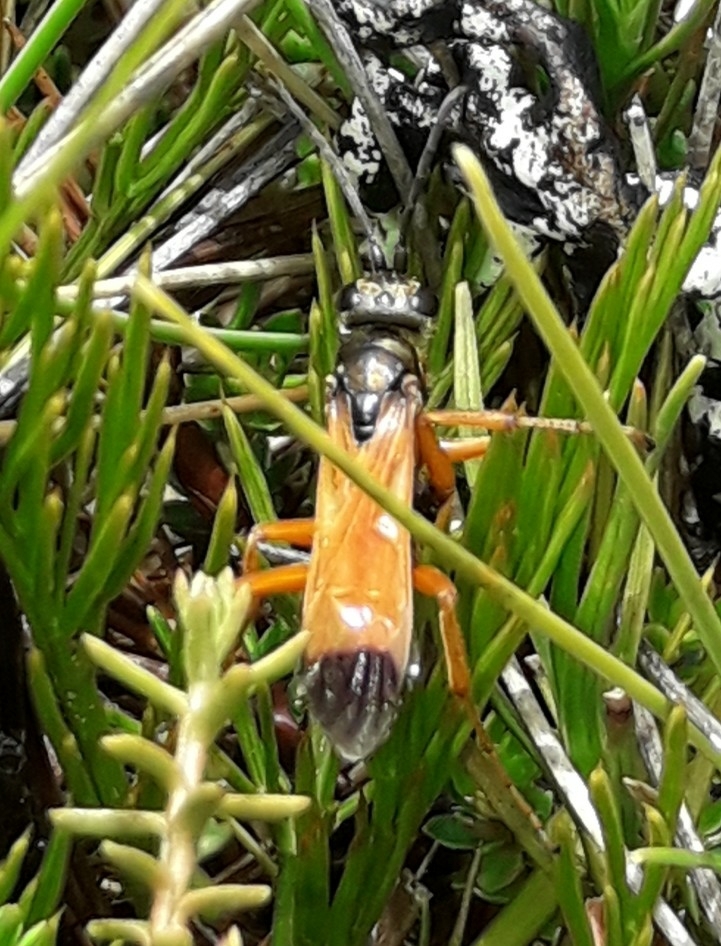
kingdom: Animalia
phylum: Arthropoda
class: Insecta
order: Hymenoptera
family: Pompilidae
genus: Priocnemis
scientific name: Priocnemis conformis
